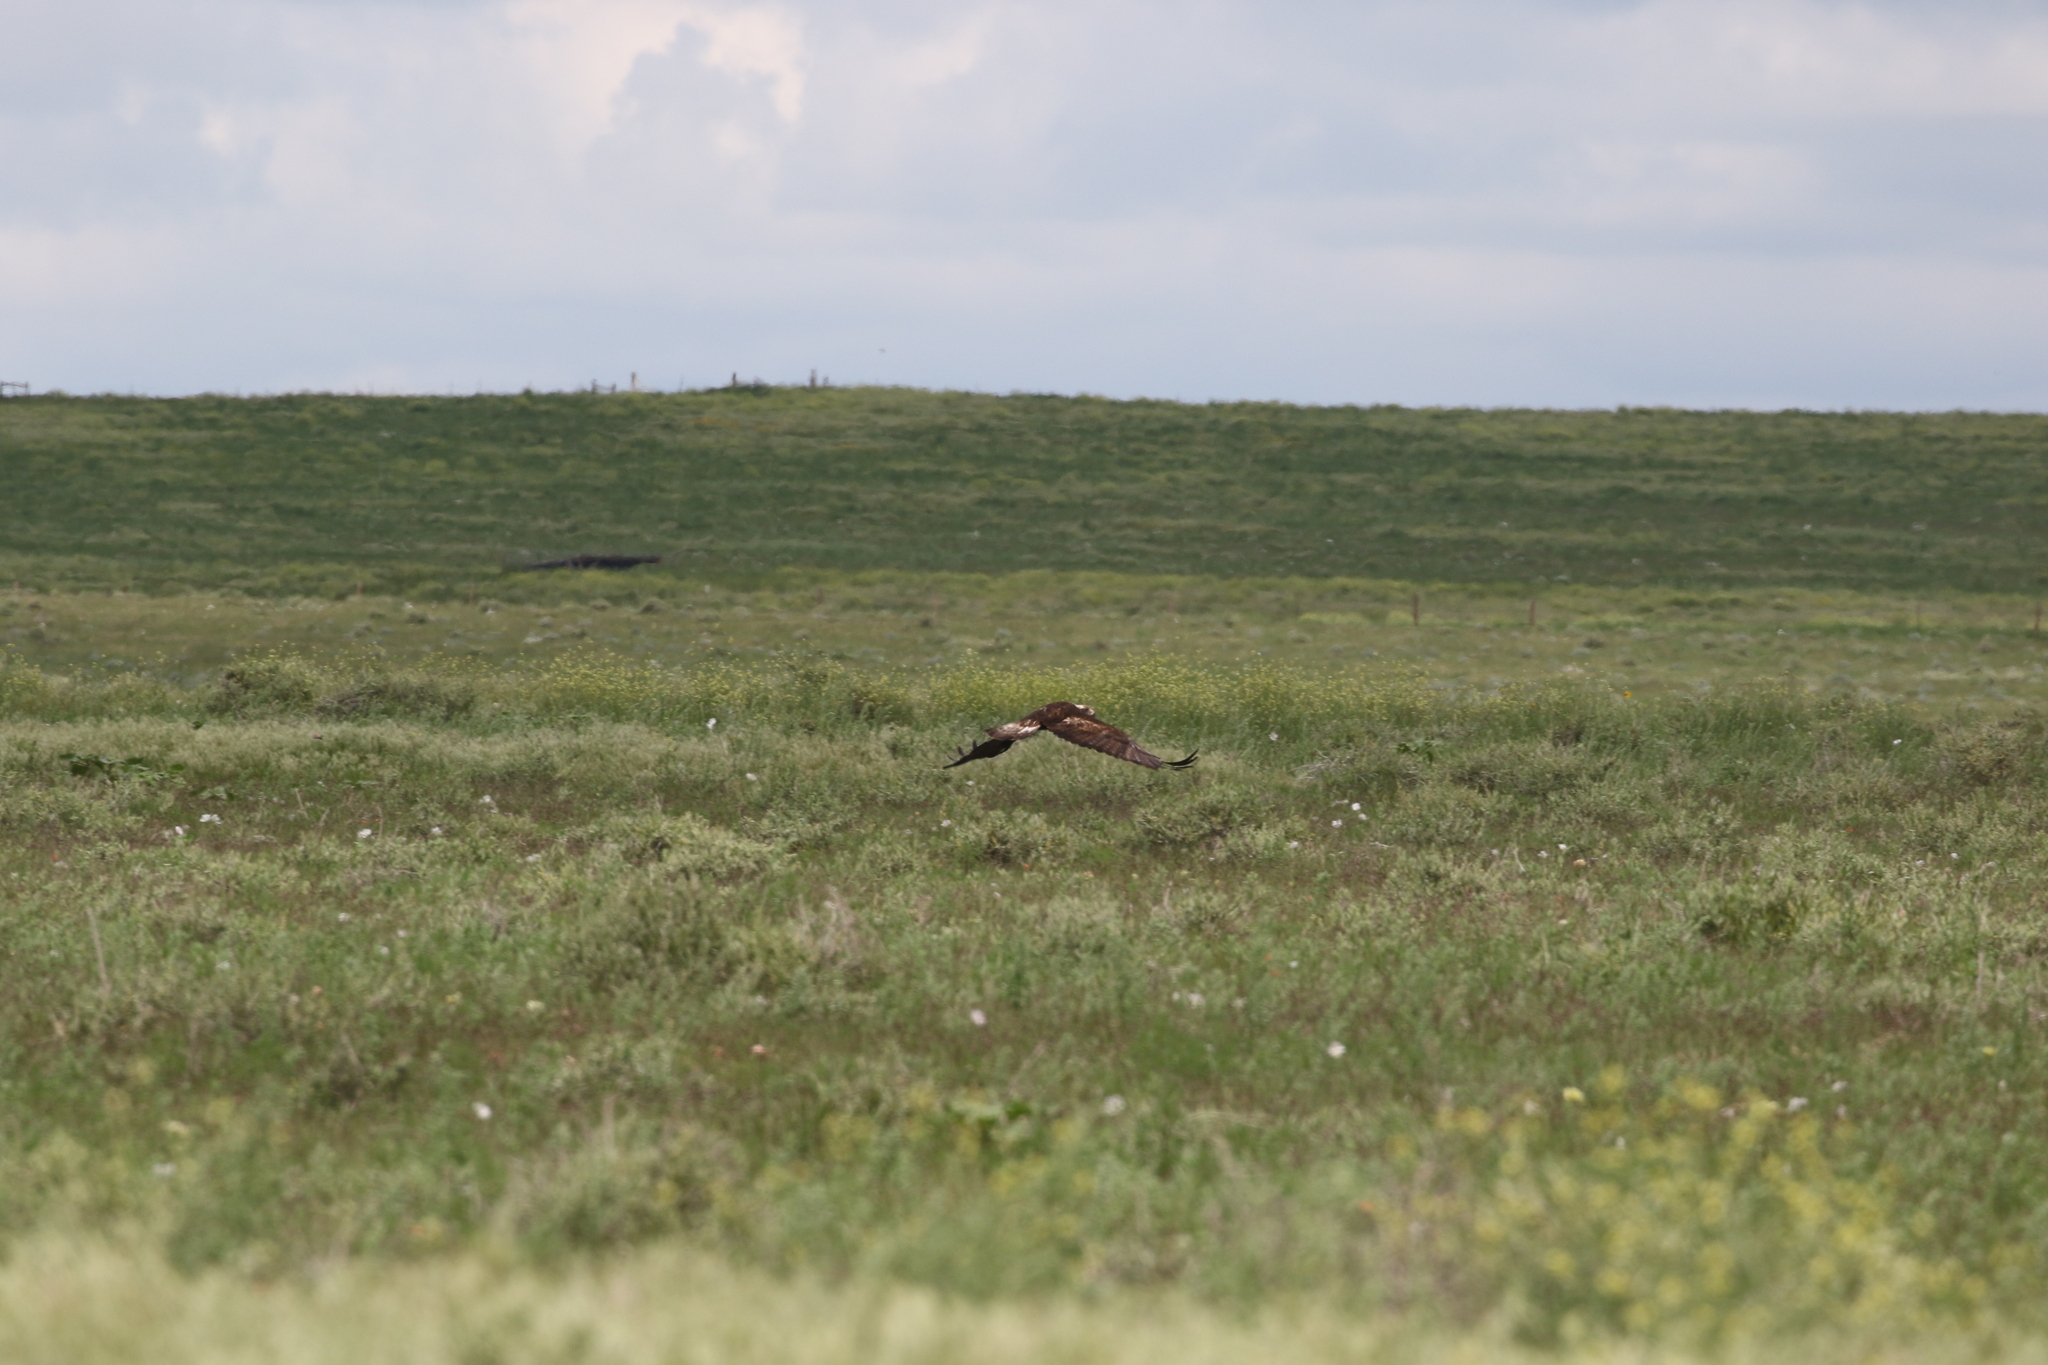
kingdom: Animalia
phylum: Chordata
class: Aves
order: Accipitriformes
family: Accipitridae
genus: Aquila
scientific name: Aquila chrysaetos
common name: Golden eagle
